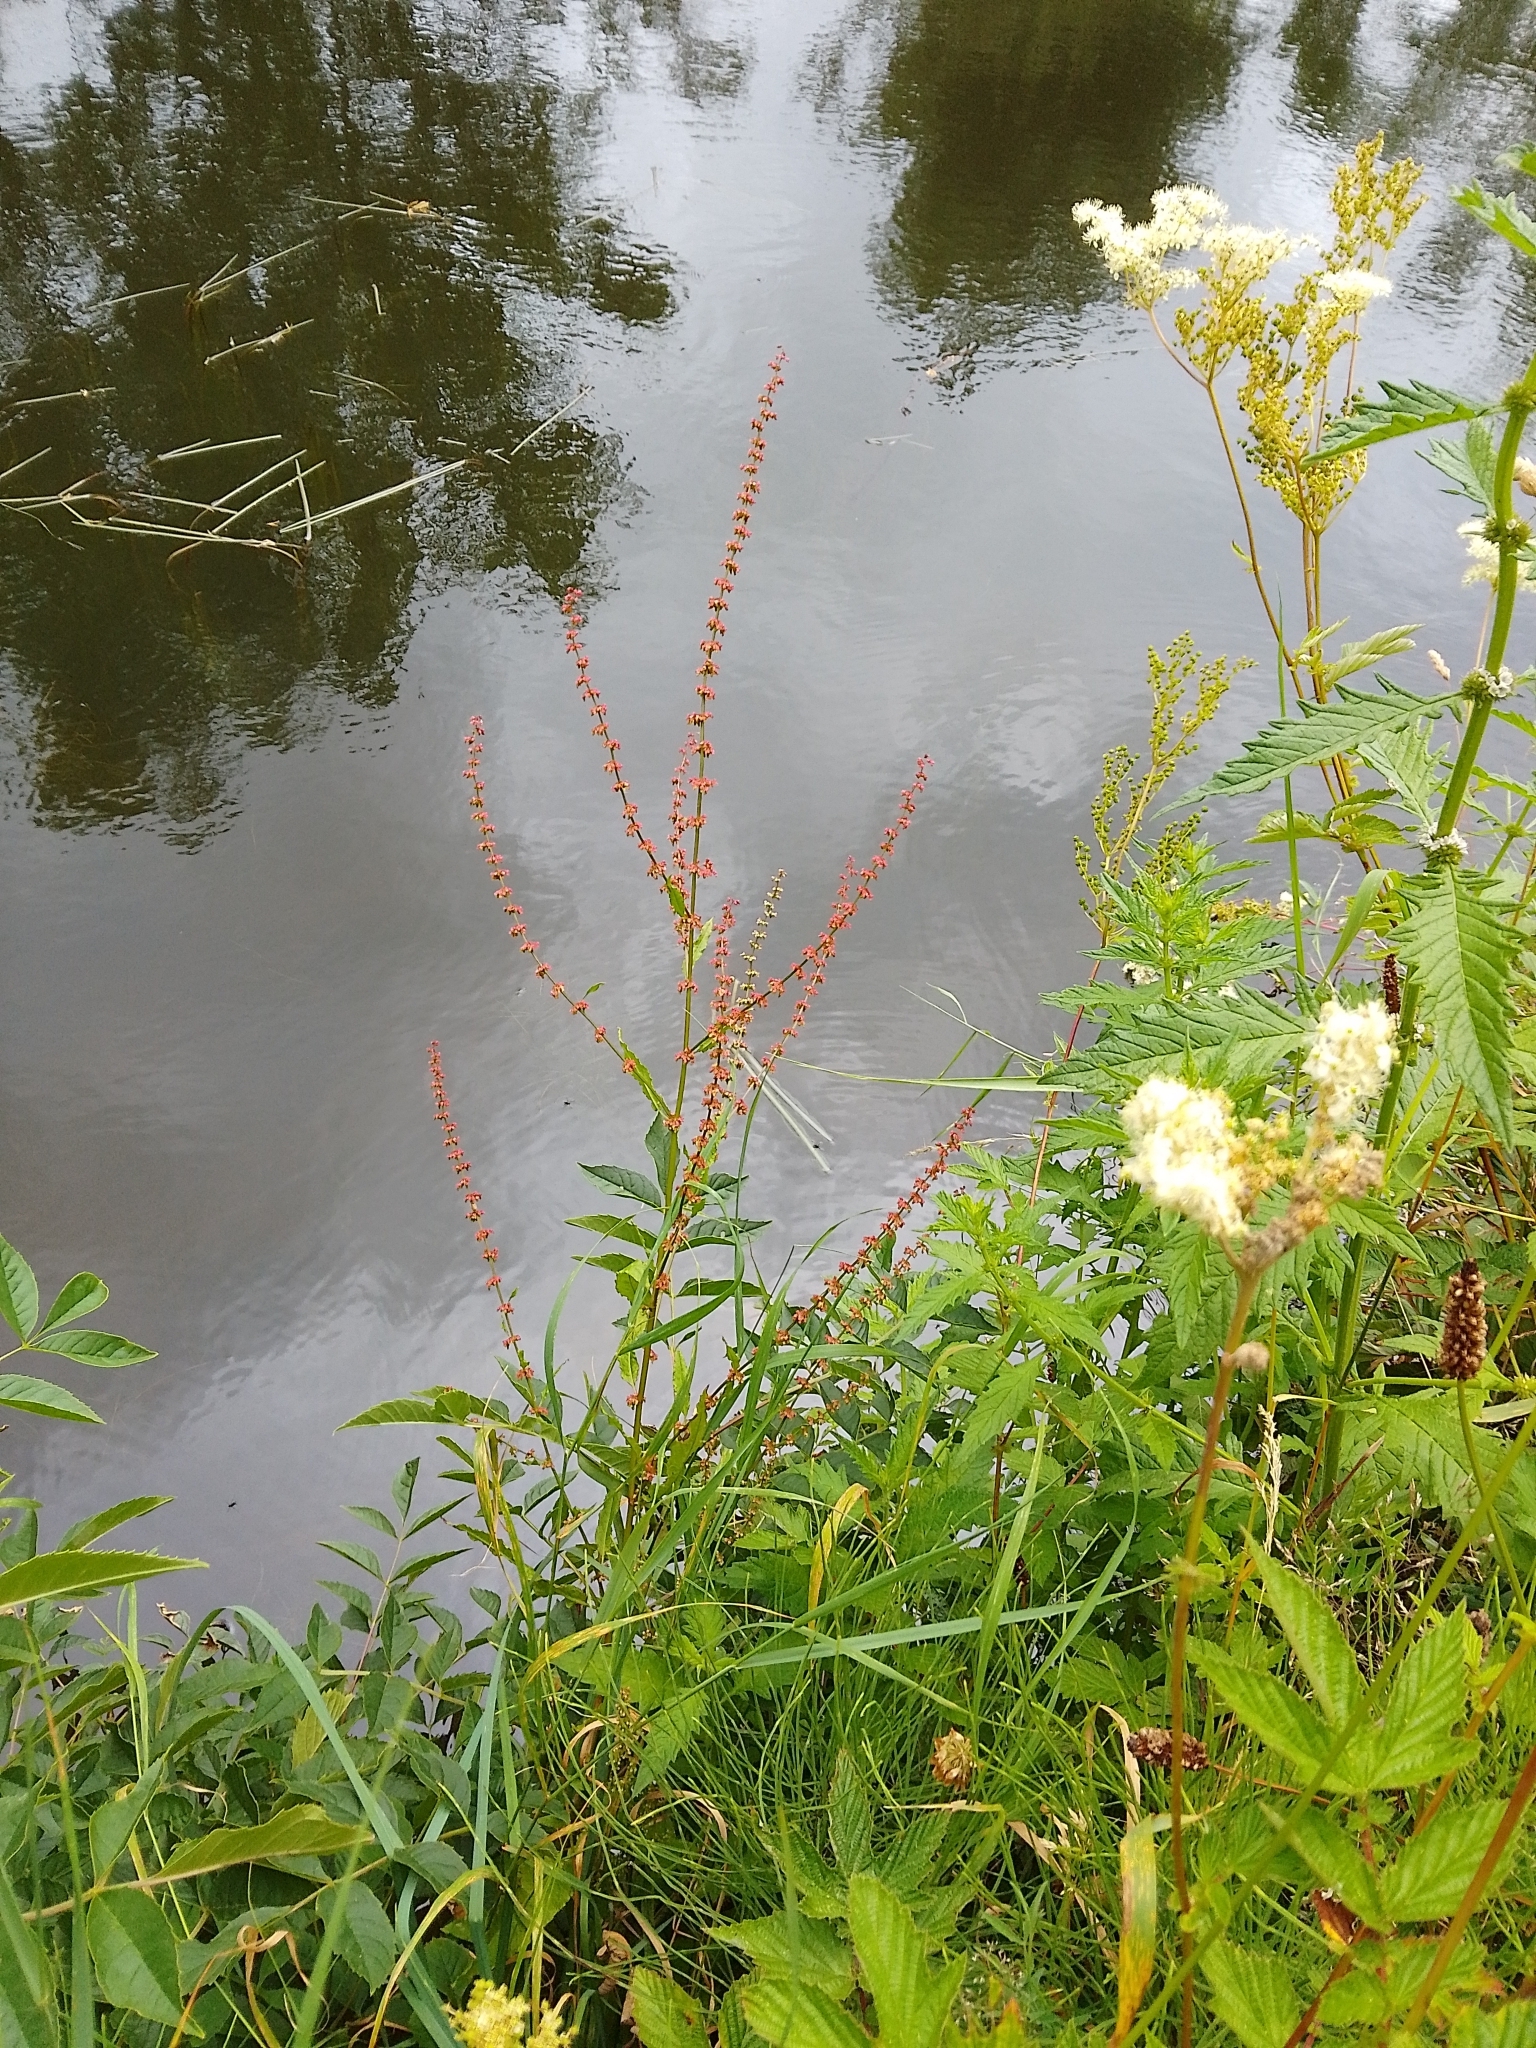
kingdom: Plantae
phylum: Tracheophyta
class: Magnoliopsida
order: Caryophyllales
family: Polygonaceae
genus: Rumex
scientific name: Rumex sanguineus
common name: Wood dock
